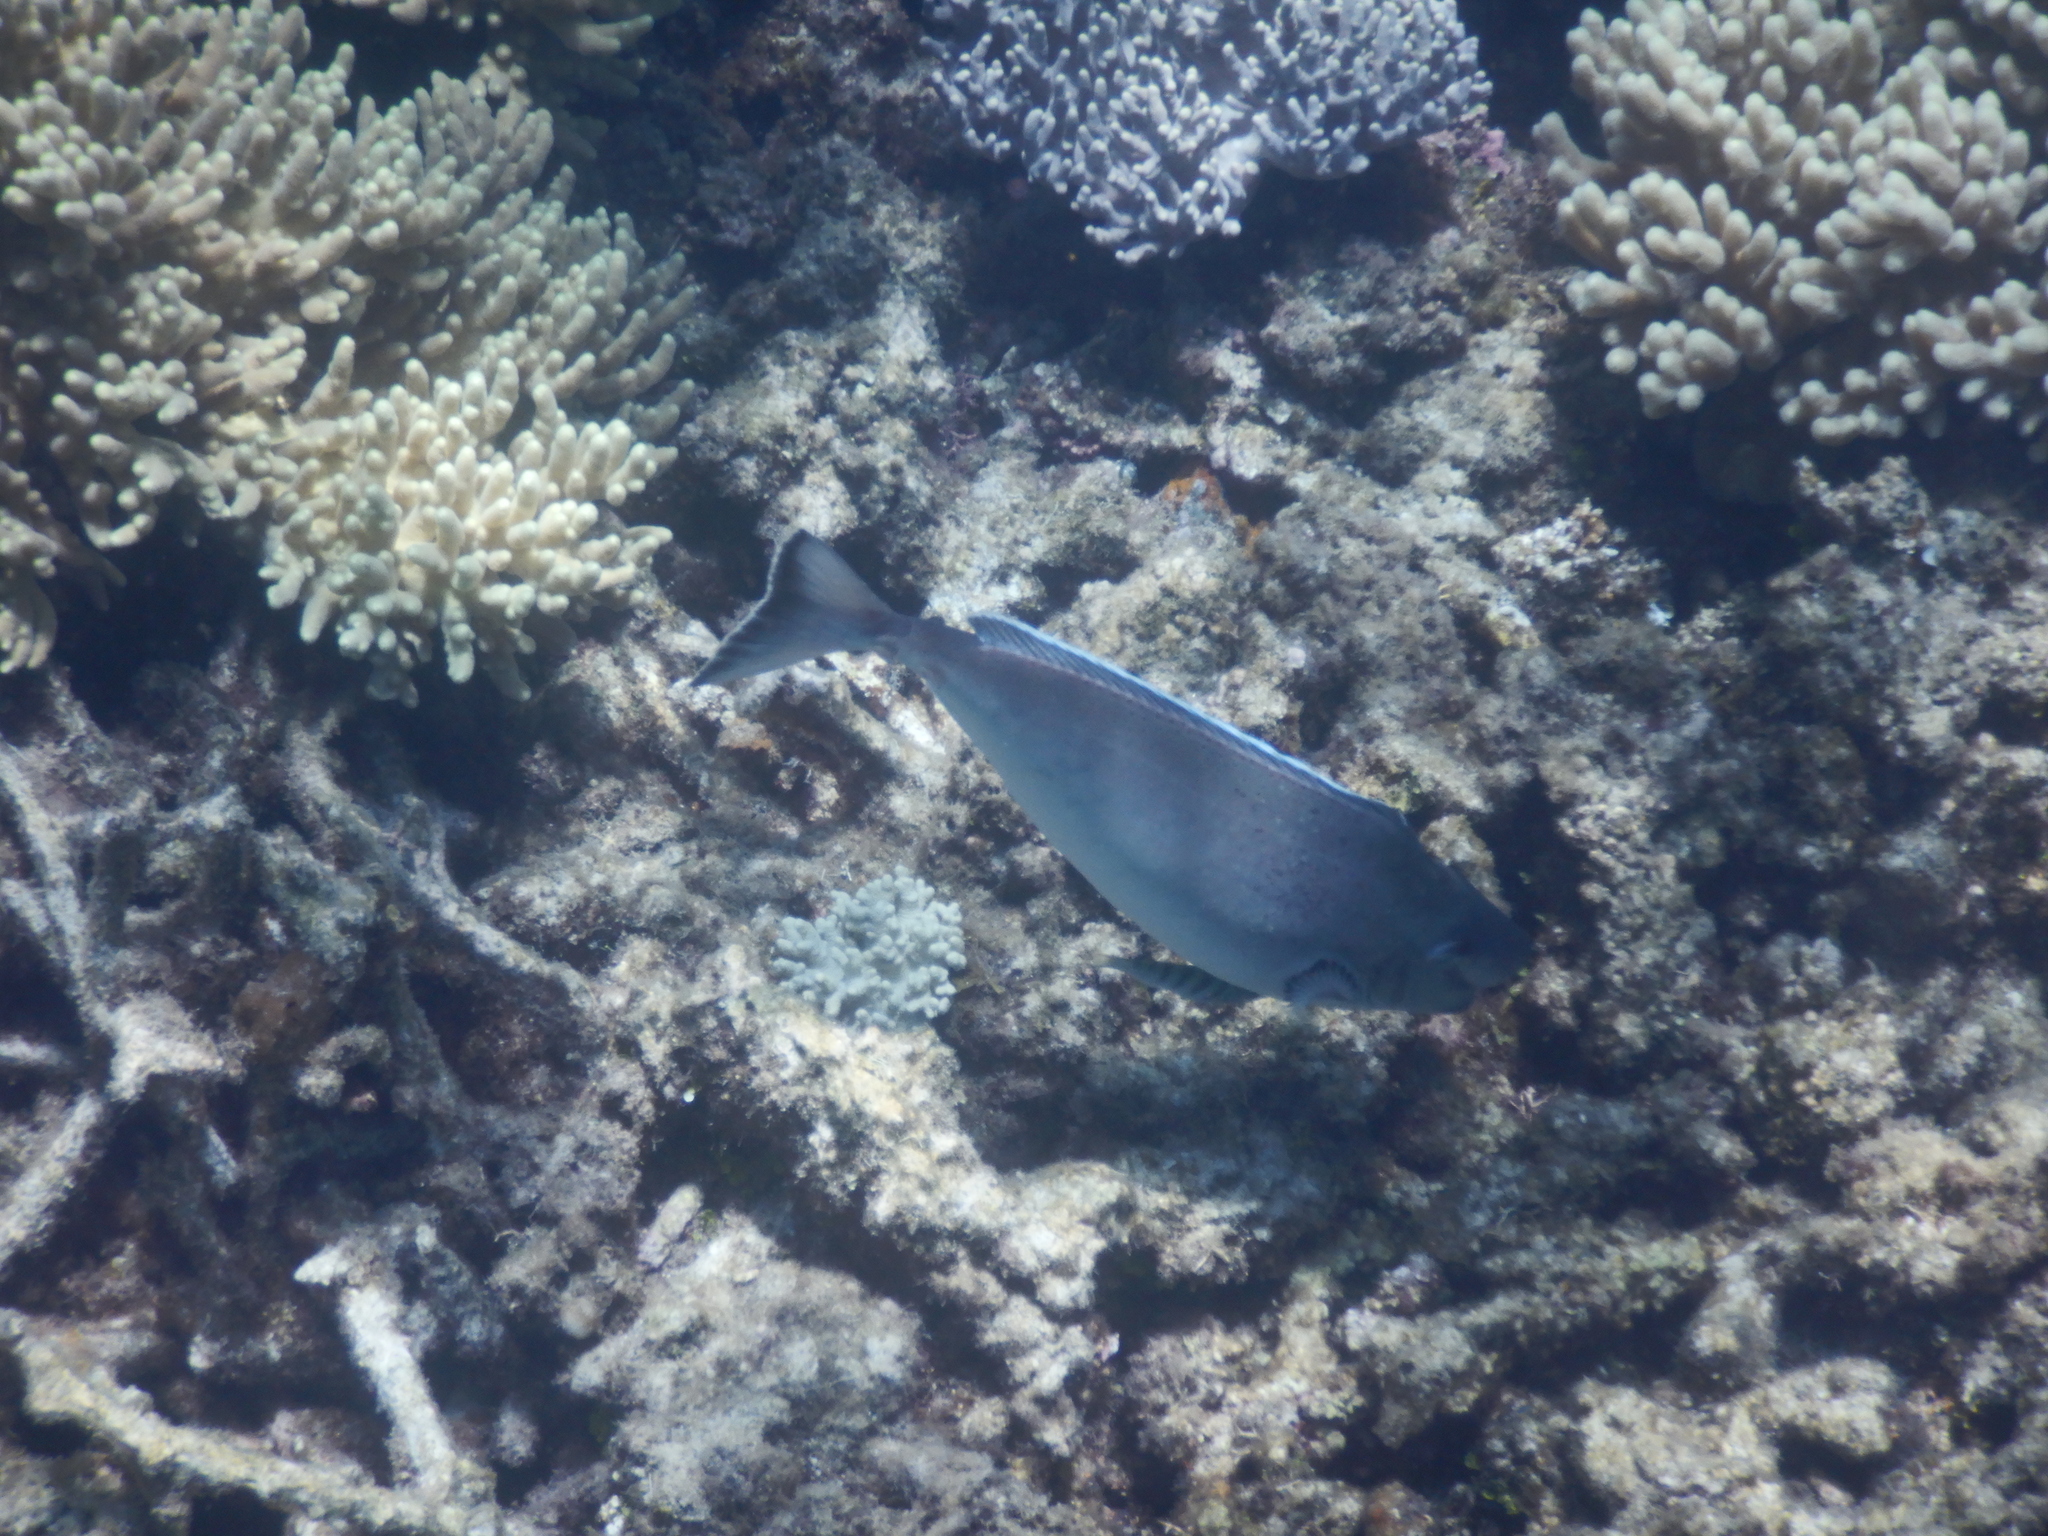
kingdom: Animalia
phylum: Chordata
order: Perciformes
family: Acanthuridae
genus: Naso
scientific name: Naso tonganus
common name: Humpnose unicornfish
